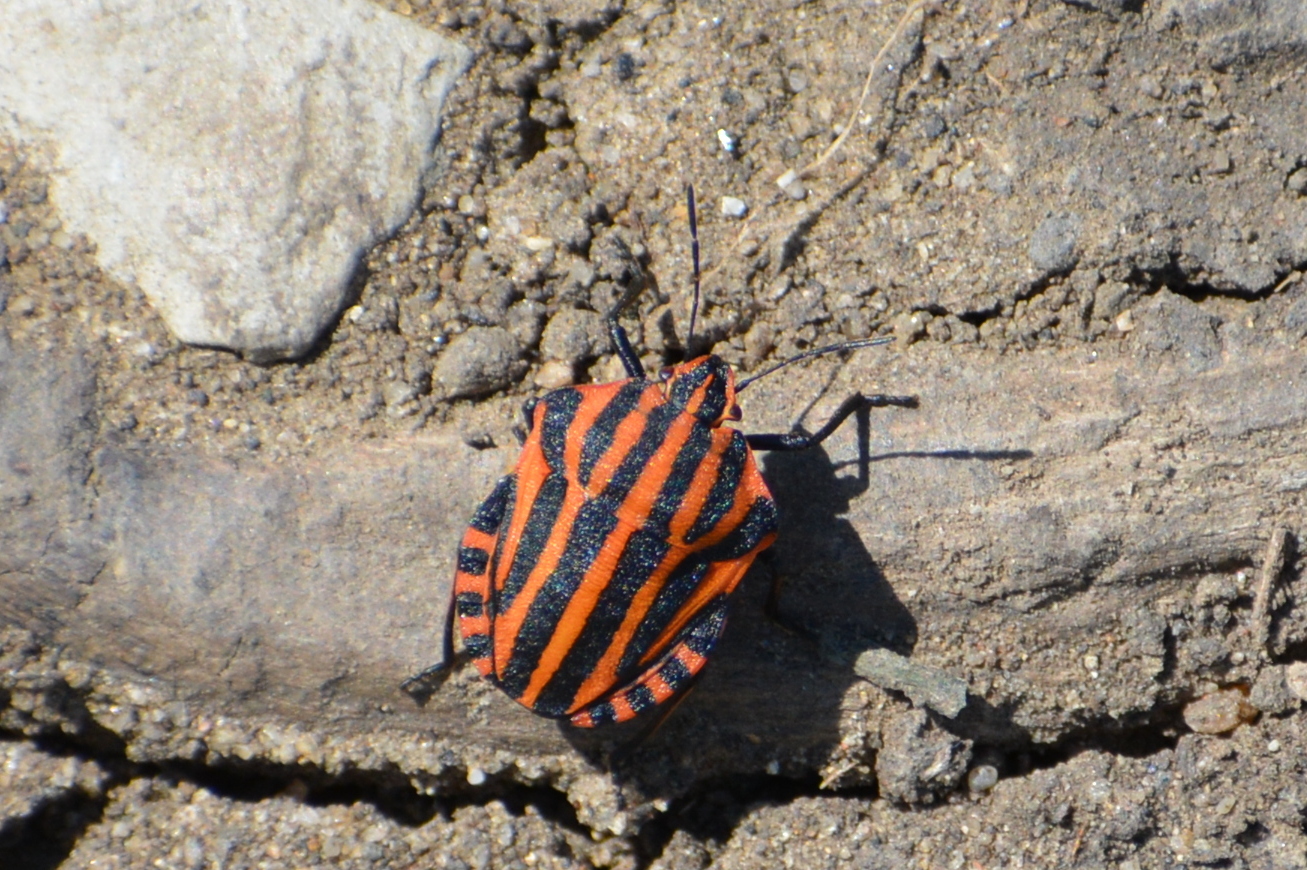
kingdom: Animalia
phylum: Arthropoda
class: Insecta
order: Hemiptera
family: Pentatomidae
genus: Graphosoma
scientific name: Graphosoma italicum
